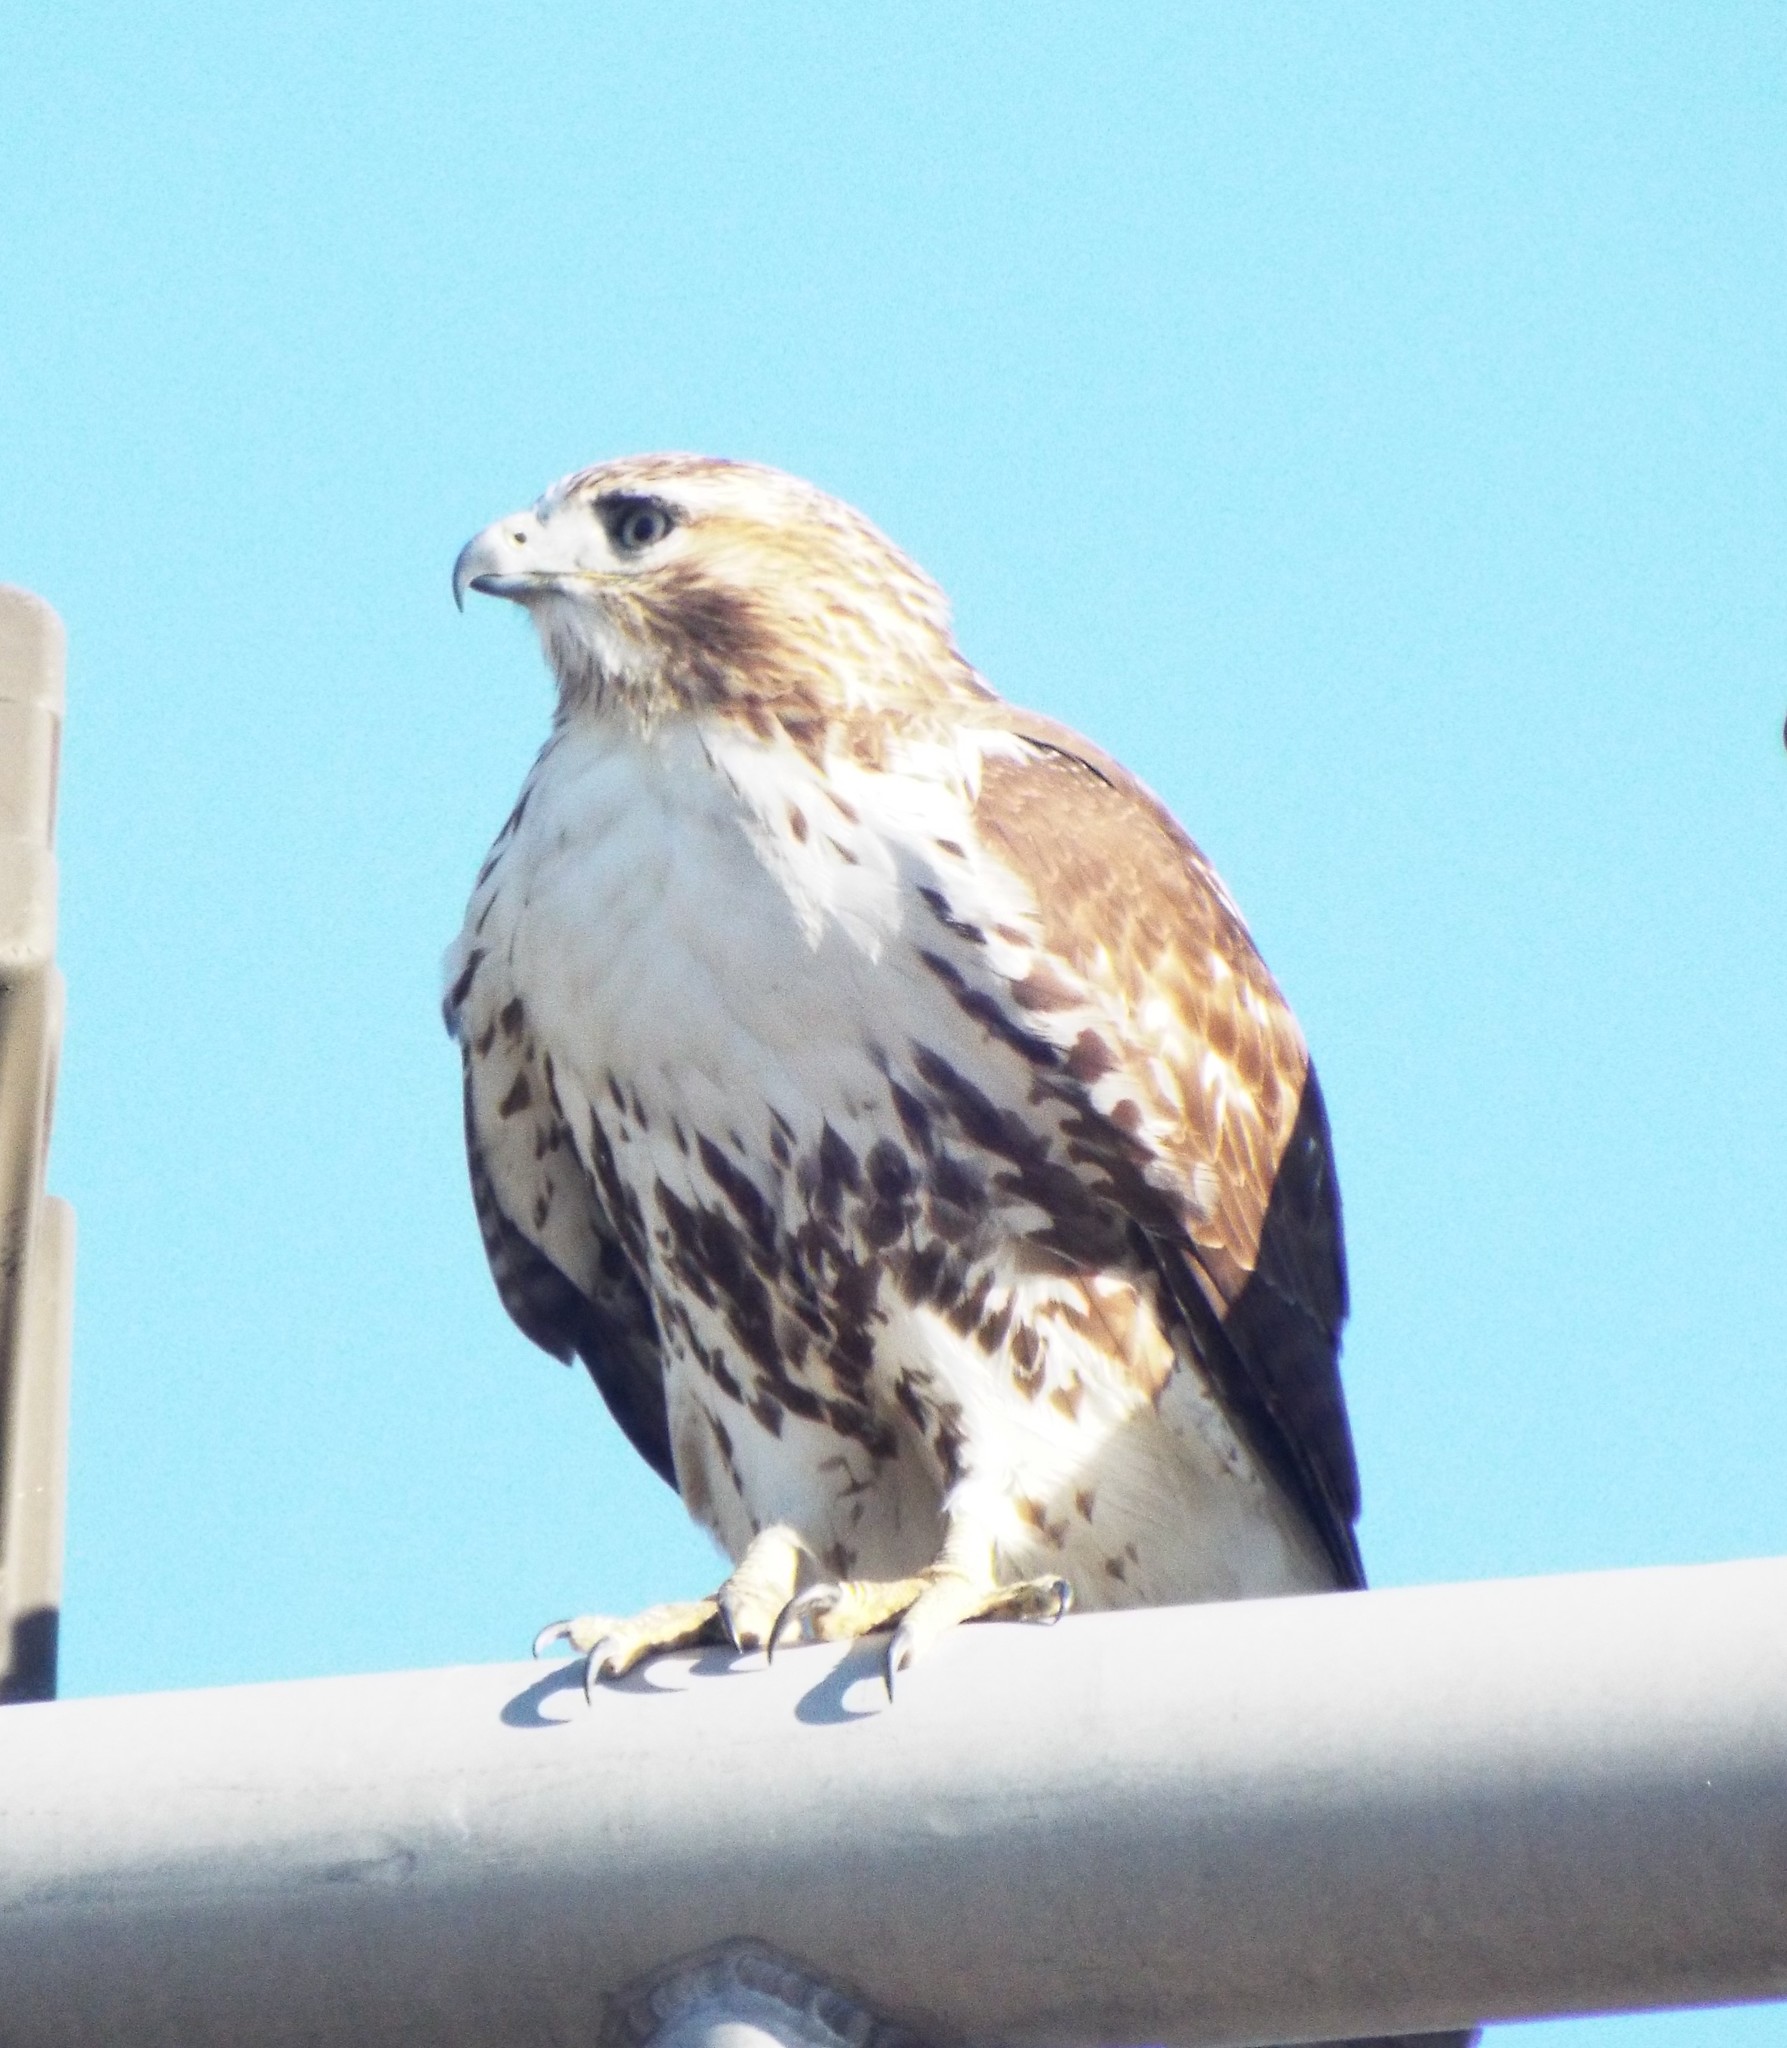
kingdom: Animalia
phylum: Chordata
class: Aves
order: Accipitriformes
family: Accipitridae
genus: Buteo
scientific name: Buteo jamaicensis
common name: Red-tailed hawk
